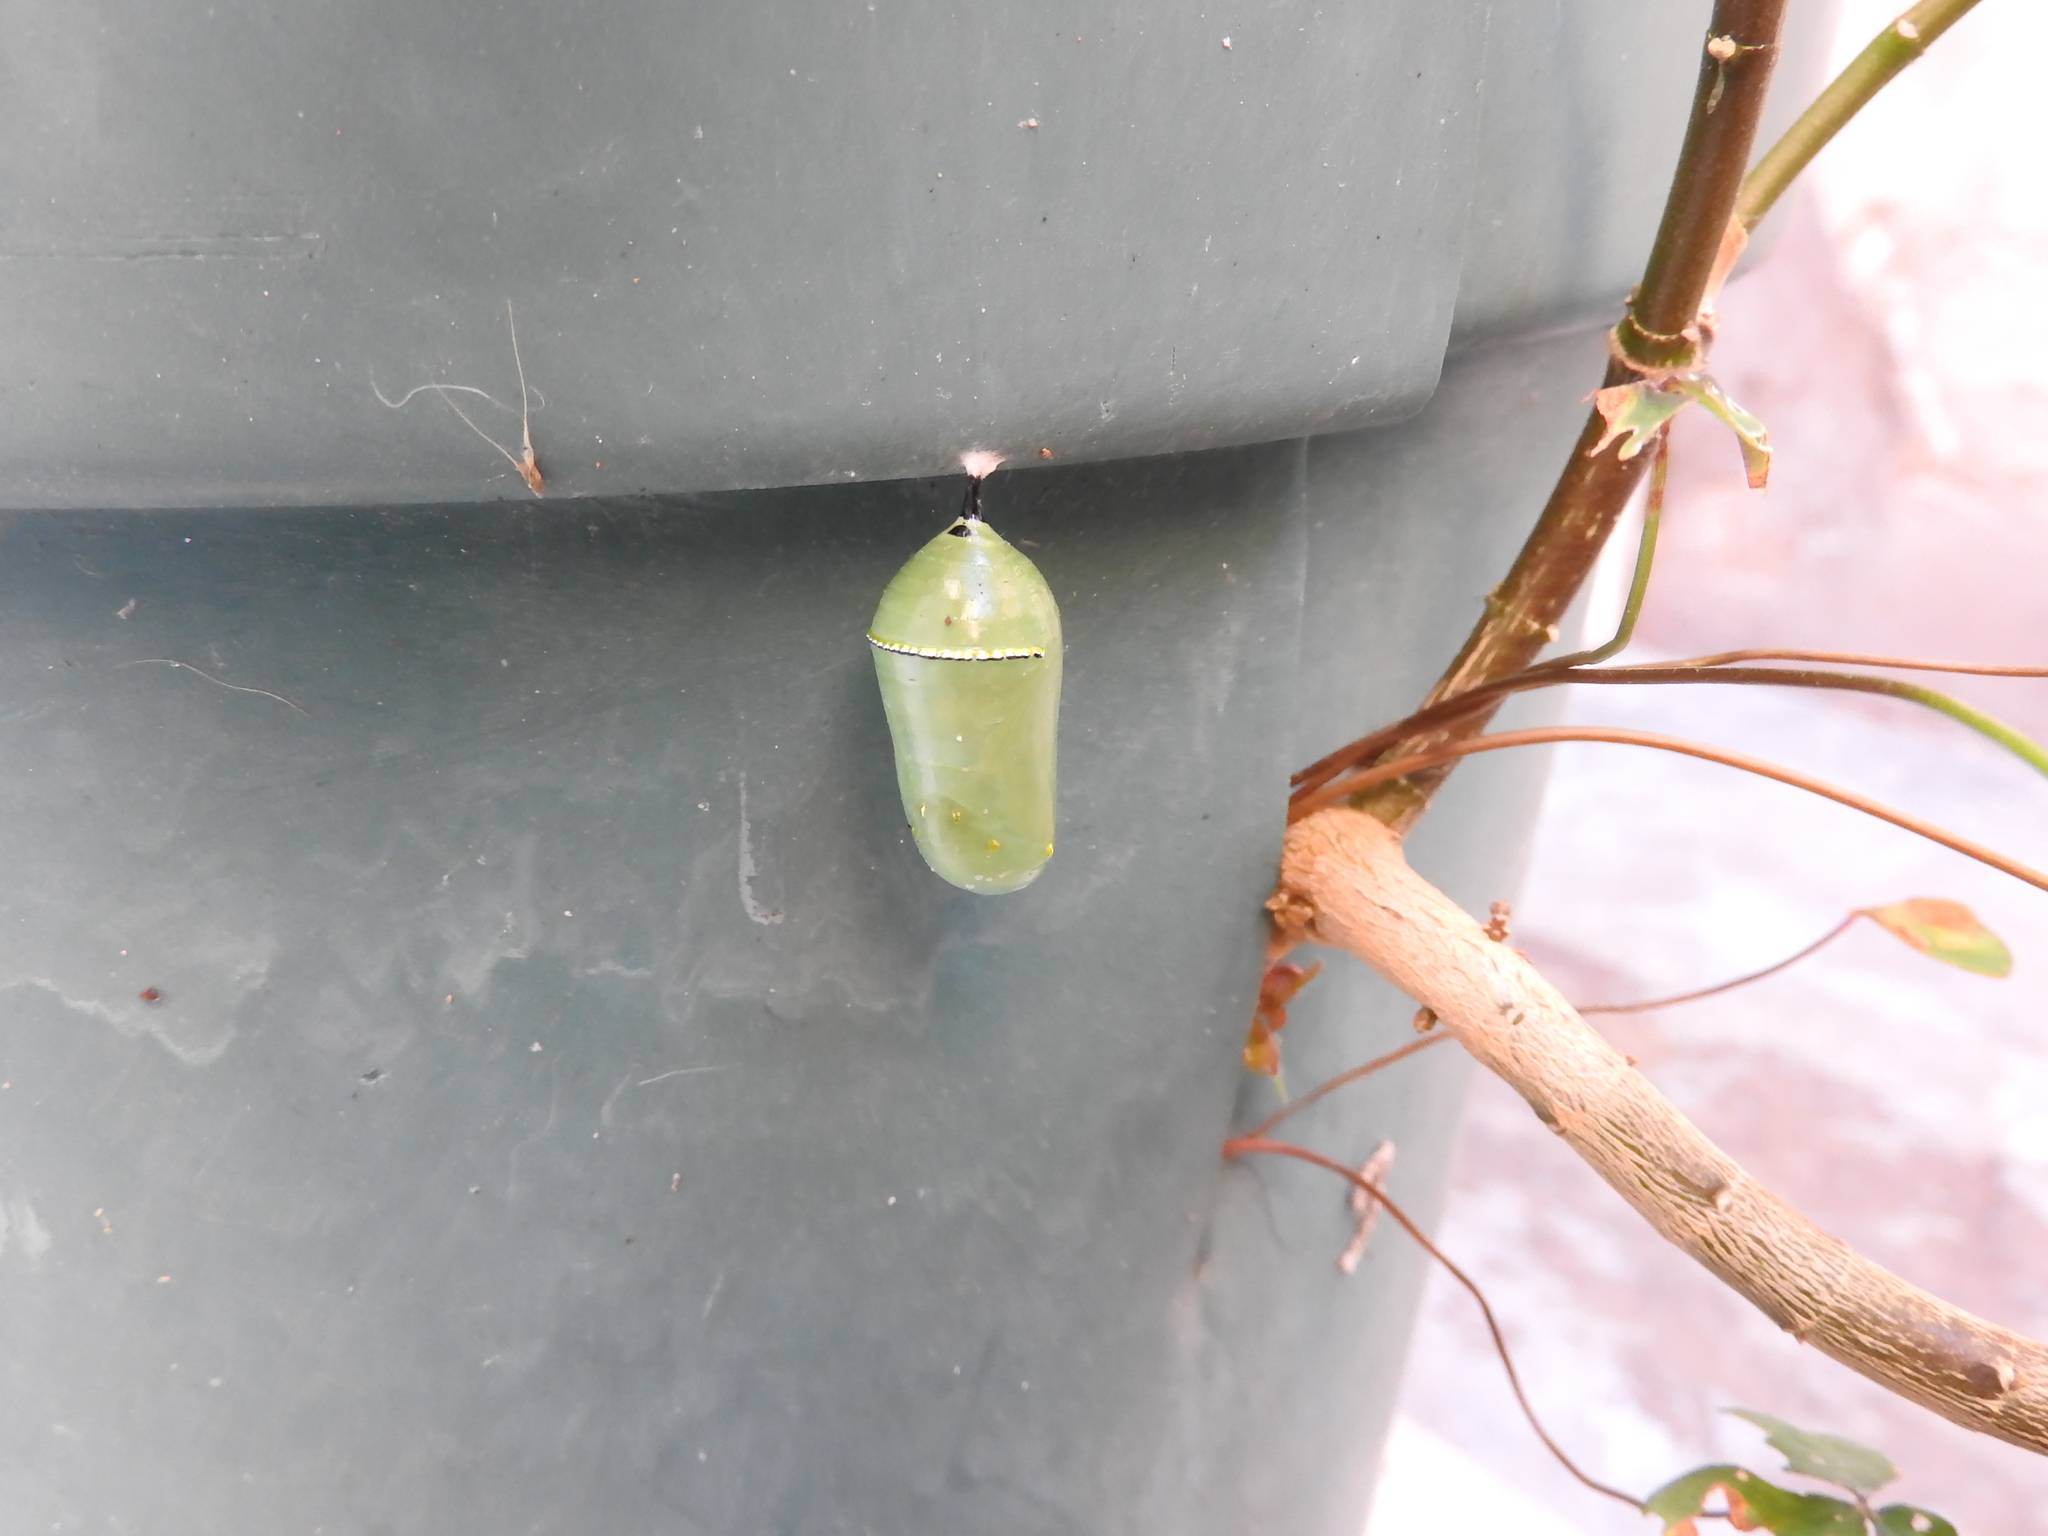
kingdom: Animalia
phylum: Arthropoda
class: Insecta
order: Lepidoptera
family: Nymphalidae
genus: Danaus
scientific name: Danaus plexippus
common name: Monarch
